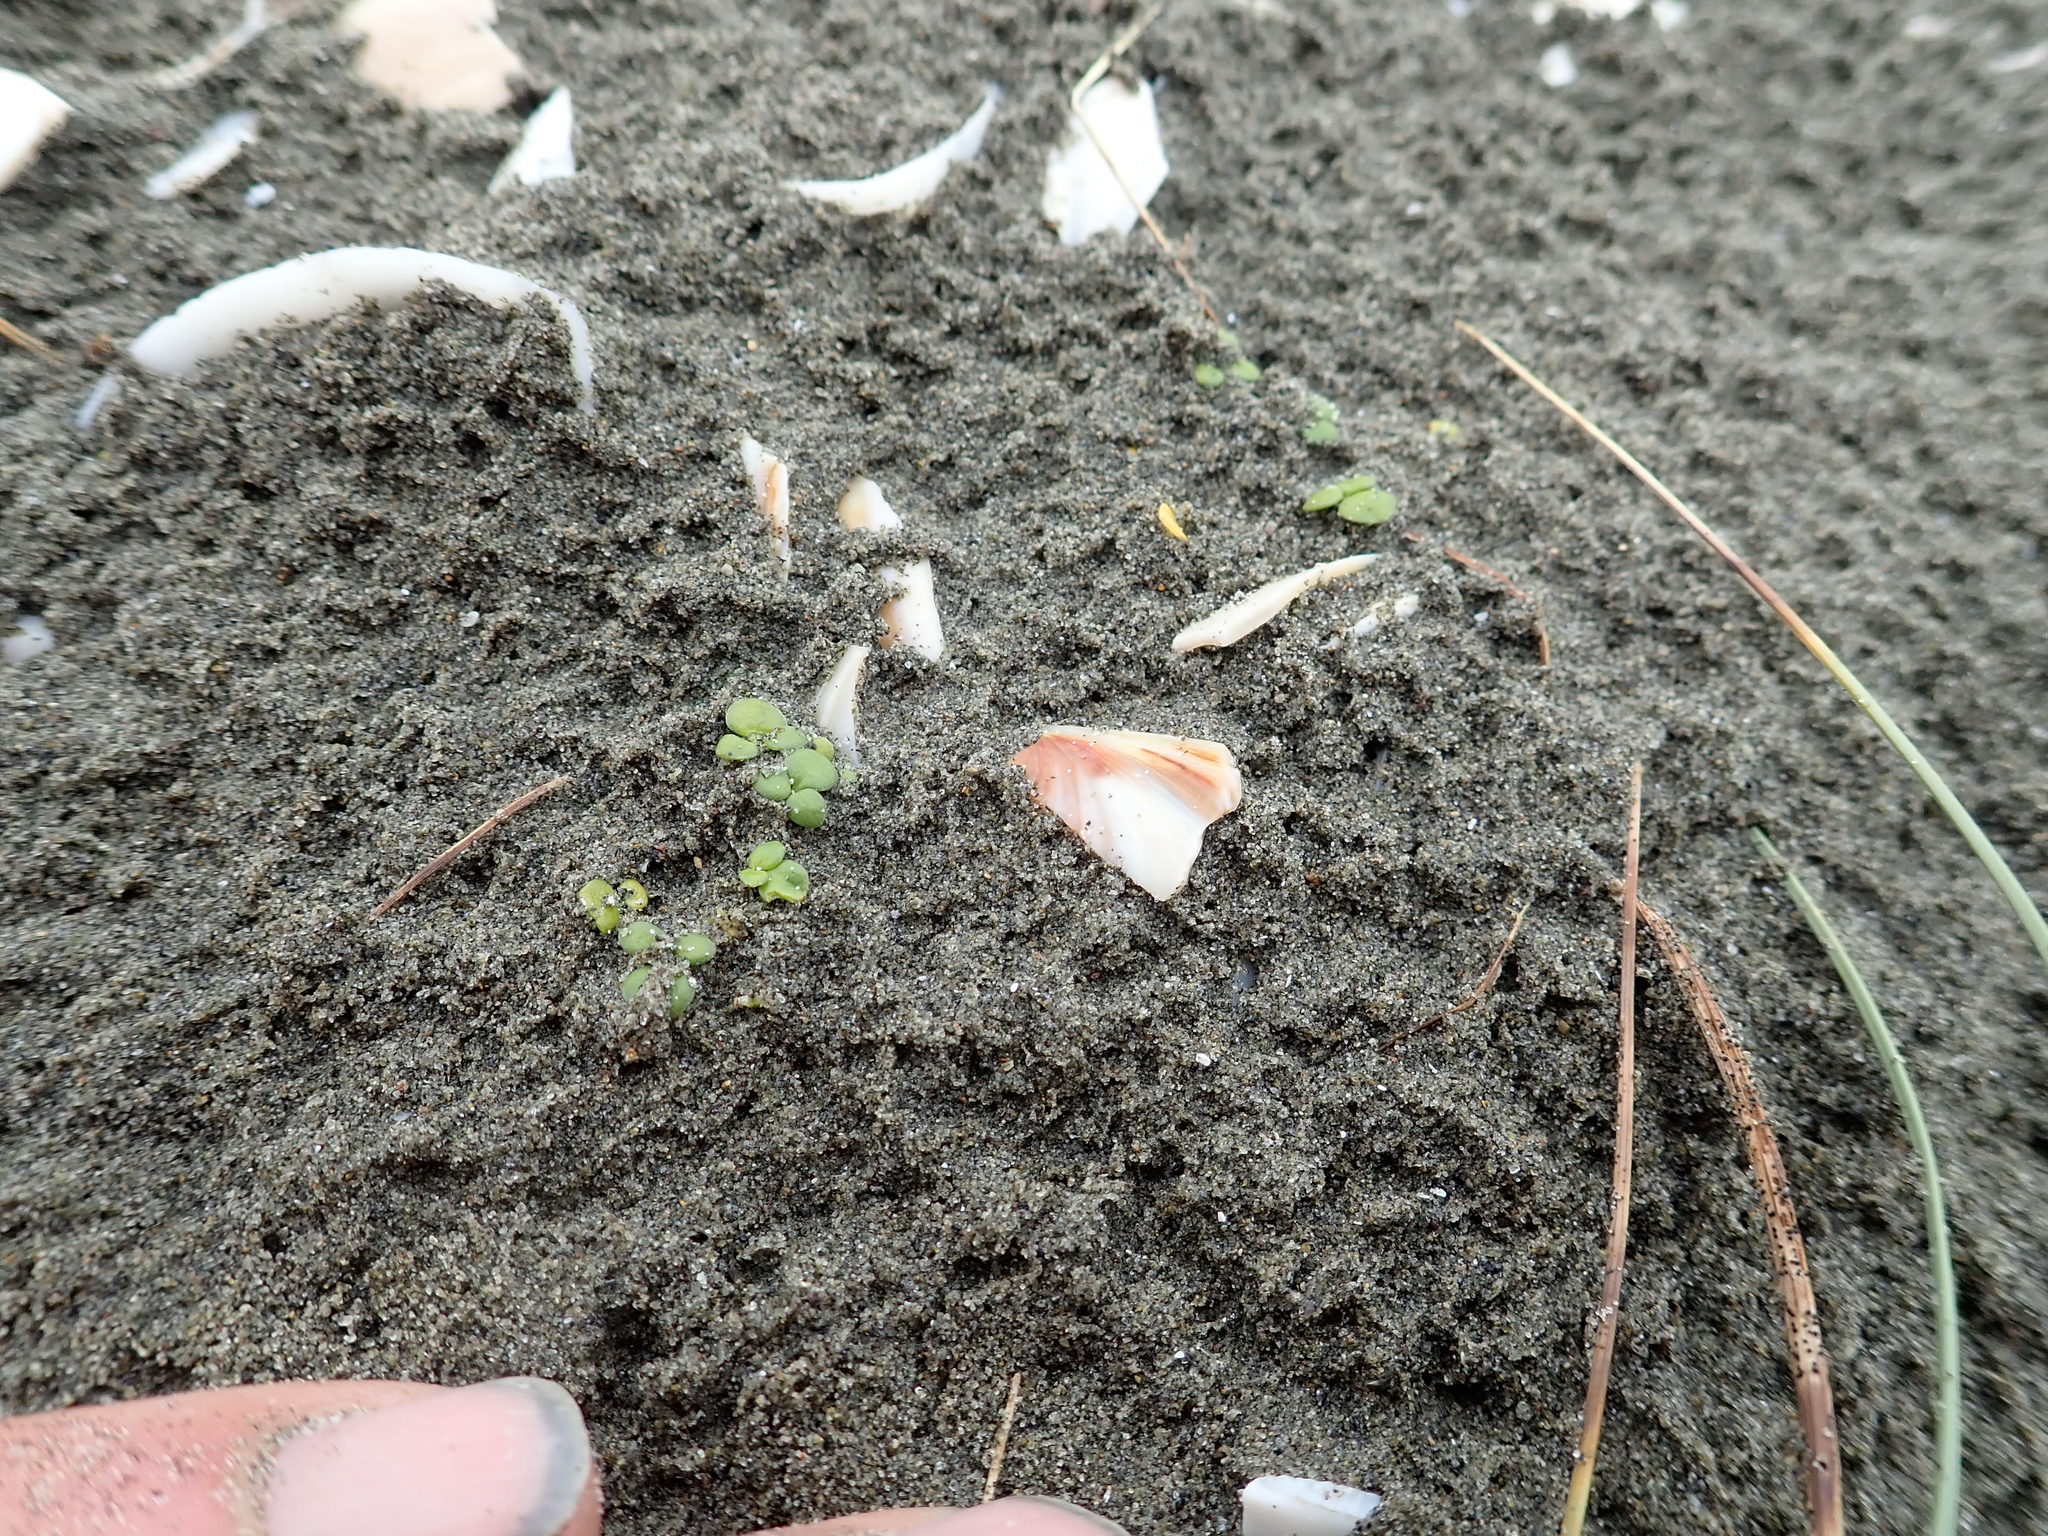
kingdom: Plantae
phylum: Tracheophyta
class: Magnoliopsida
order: Ranunculales
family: Ranunculaceae
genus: Ranunculus
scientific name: Ranunculus acaulis
